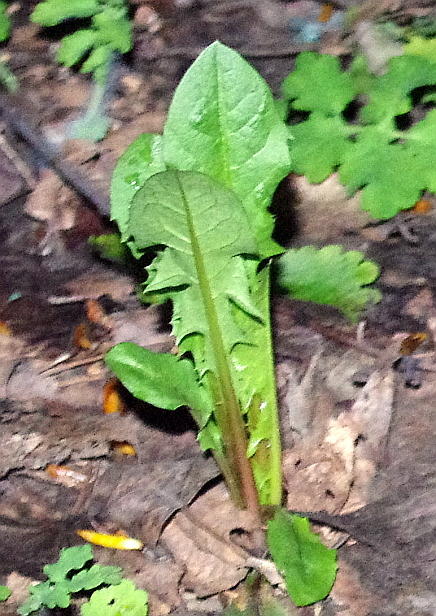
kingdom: Plantae
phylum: Tracheophyta
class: Magnoliopsida
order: Asterales
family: Asteraceae
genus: Taraxacum
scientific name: Taraxacum officinale
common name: Common dandelion
